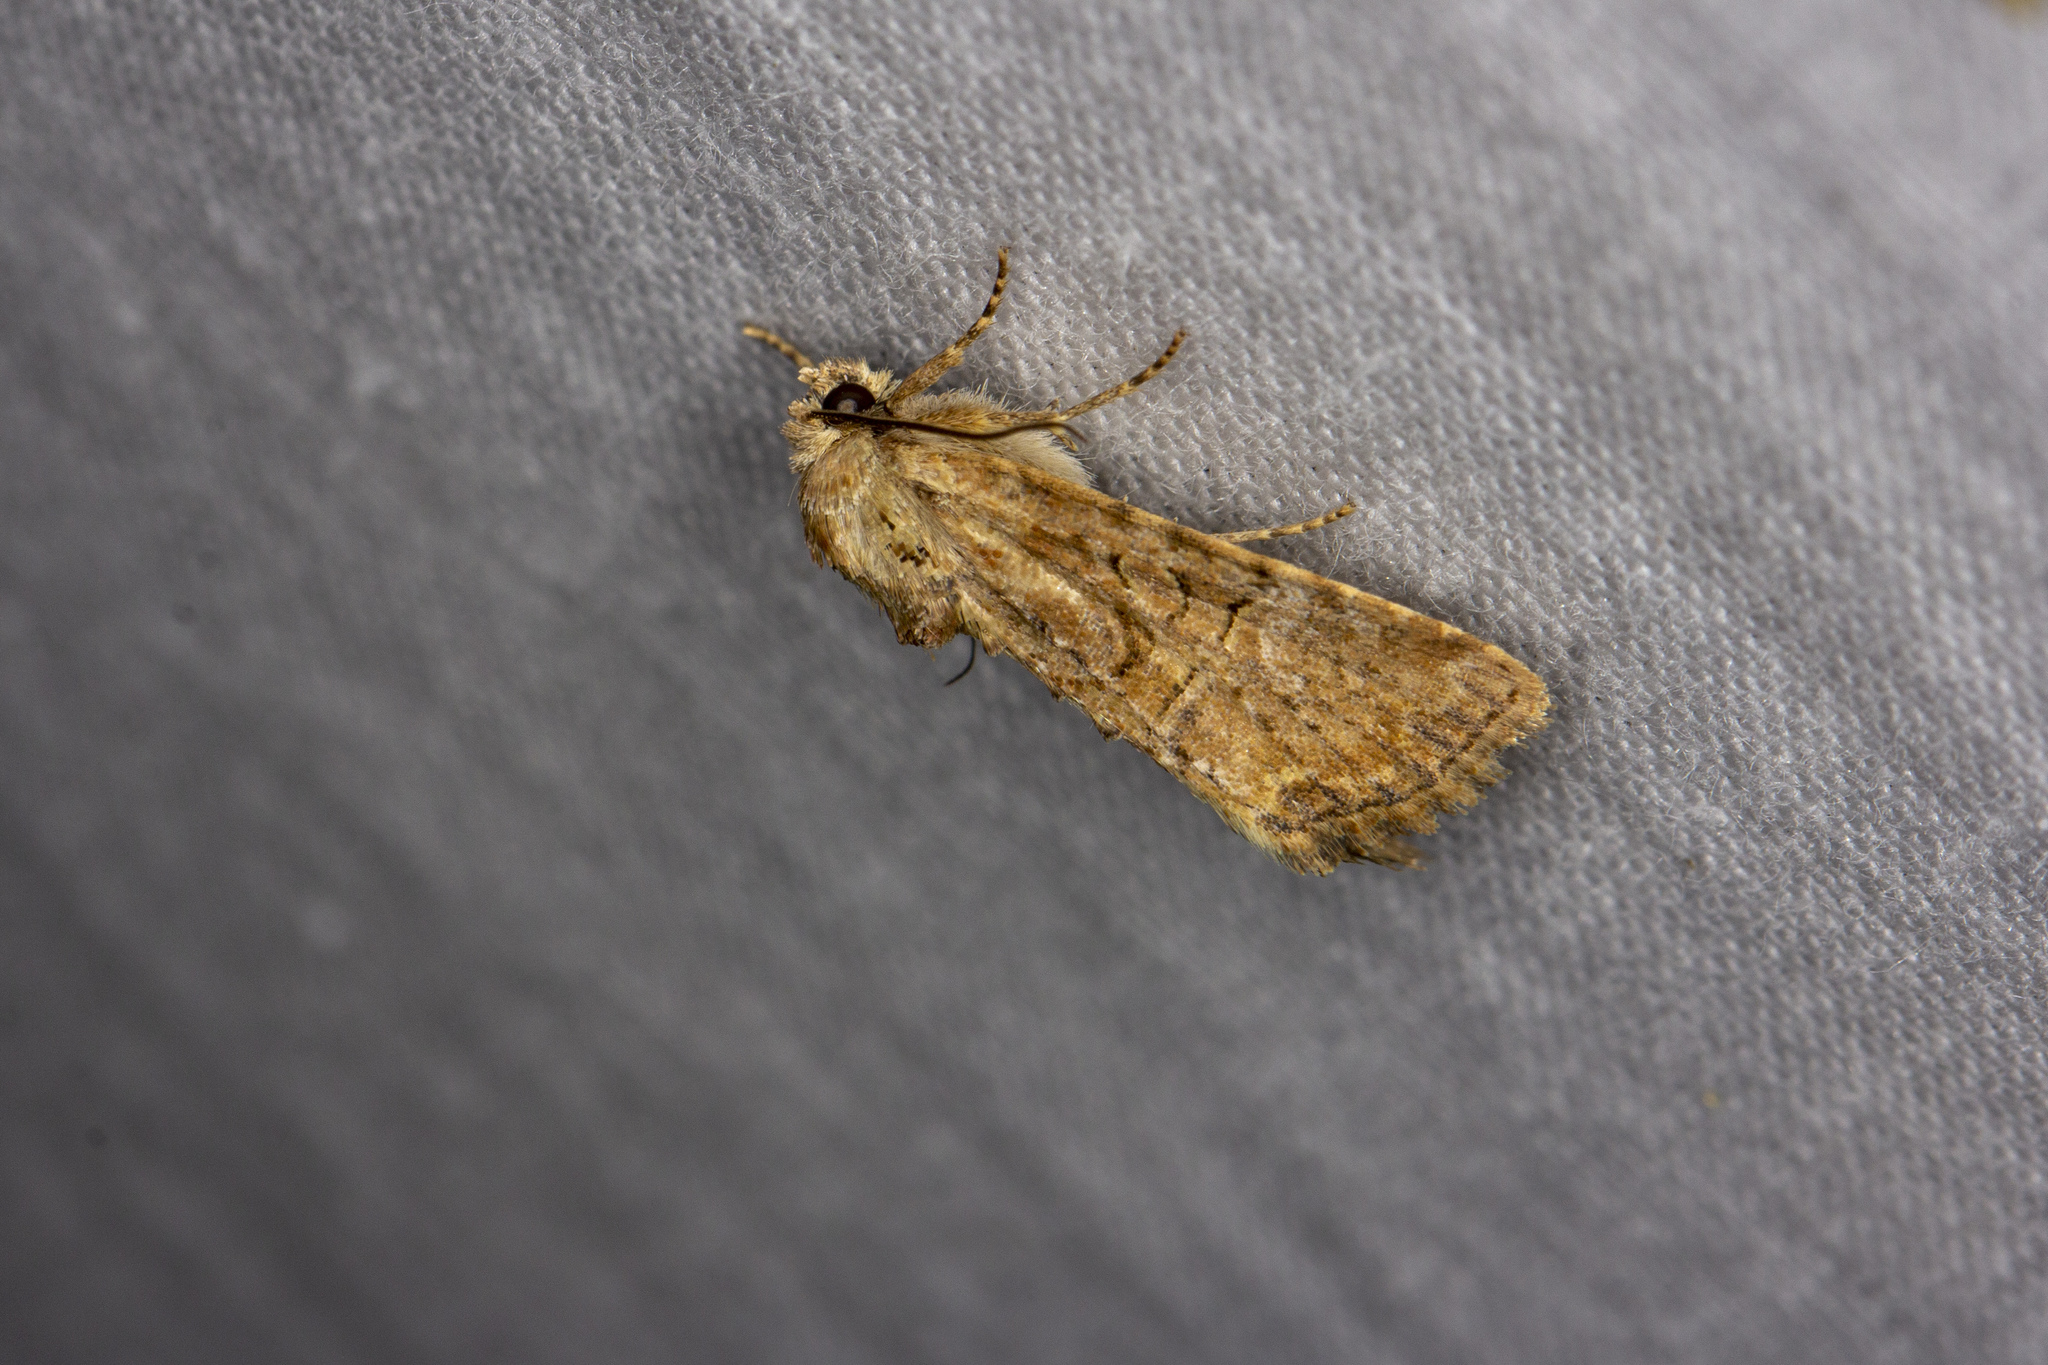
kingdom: Animalia
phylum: Arthropoda
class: Insecta
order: Lepidoptera
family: Noctuidae
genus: Mesoligia
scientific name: Mesoligia furuncula
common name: Cloaked minor
